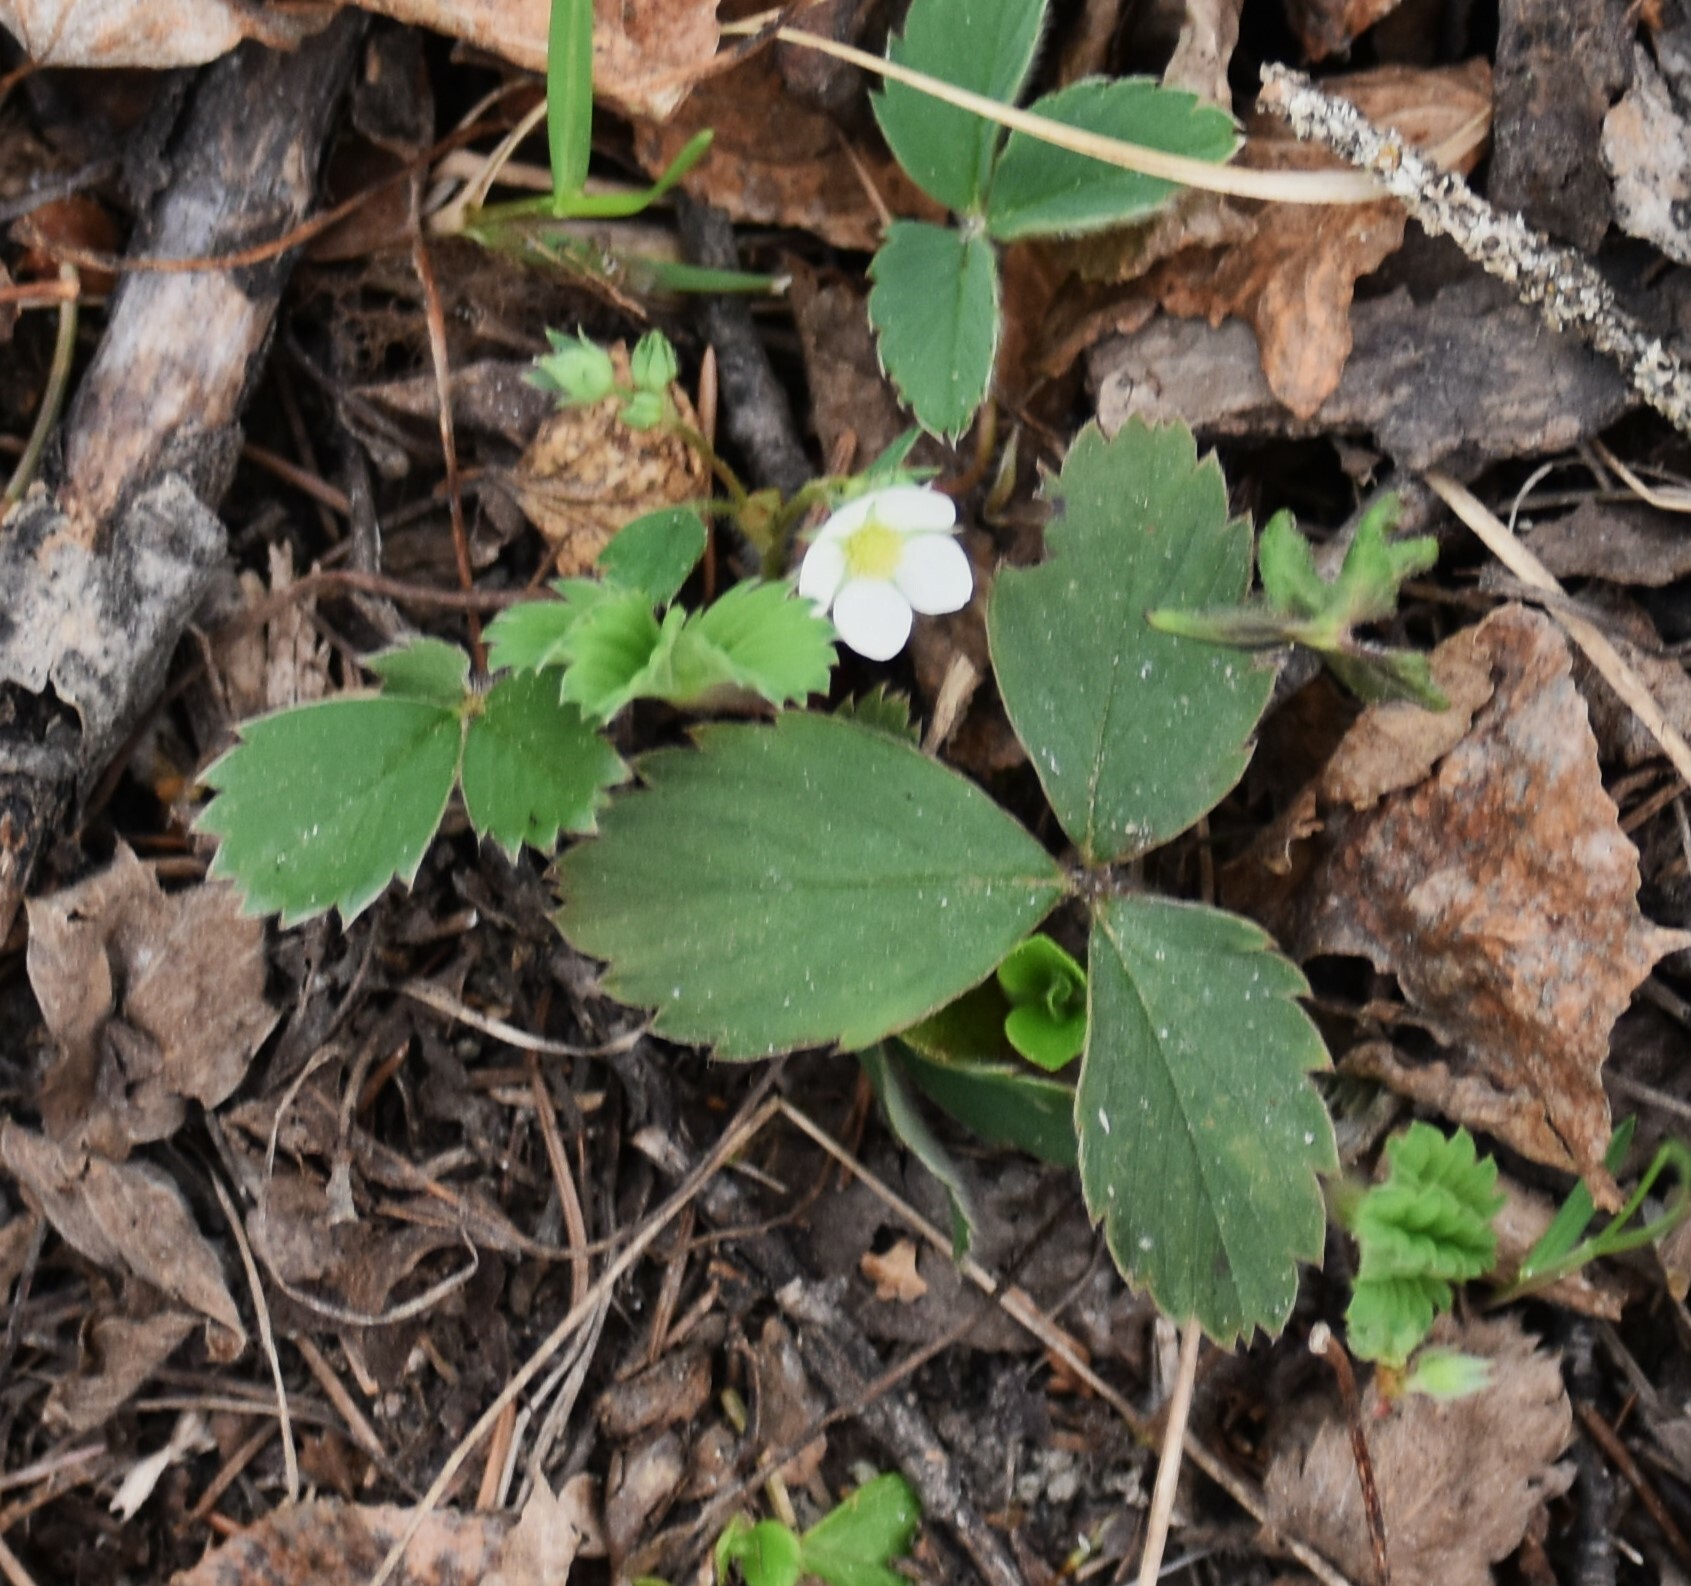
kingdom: Plantae
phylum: Tracheophyta
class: Magnoliopsida
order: Rosales
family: Rosaceae
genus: Fragaria
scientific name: Fragaria virginiana
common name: Thickleaved wild strawberry
